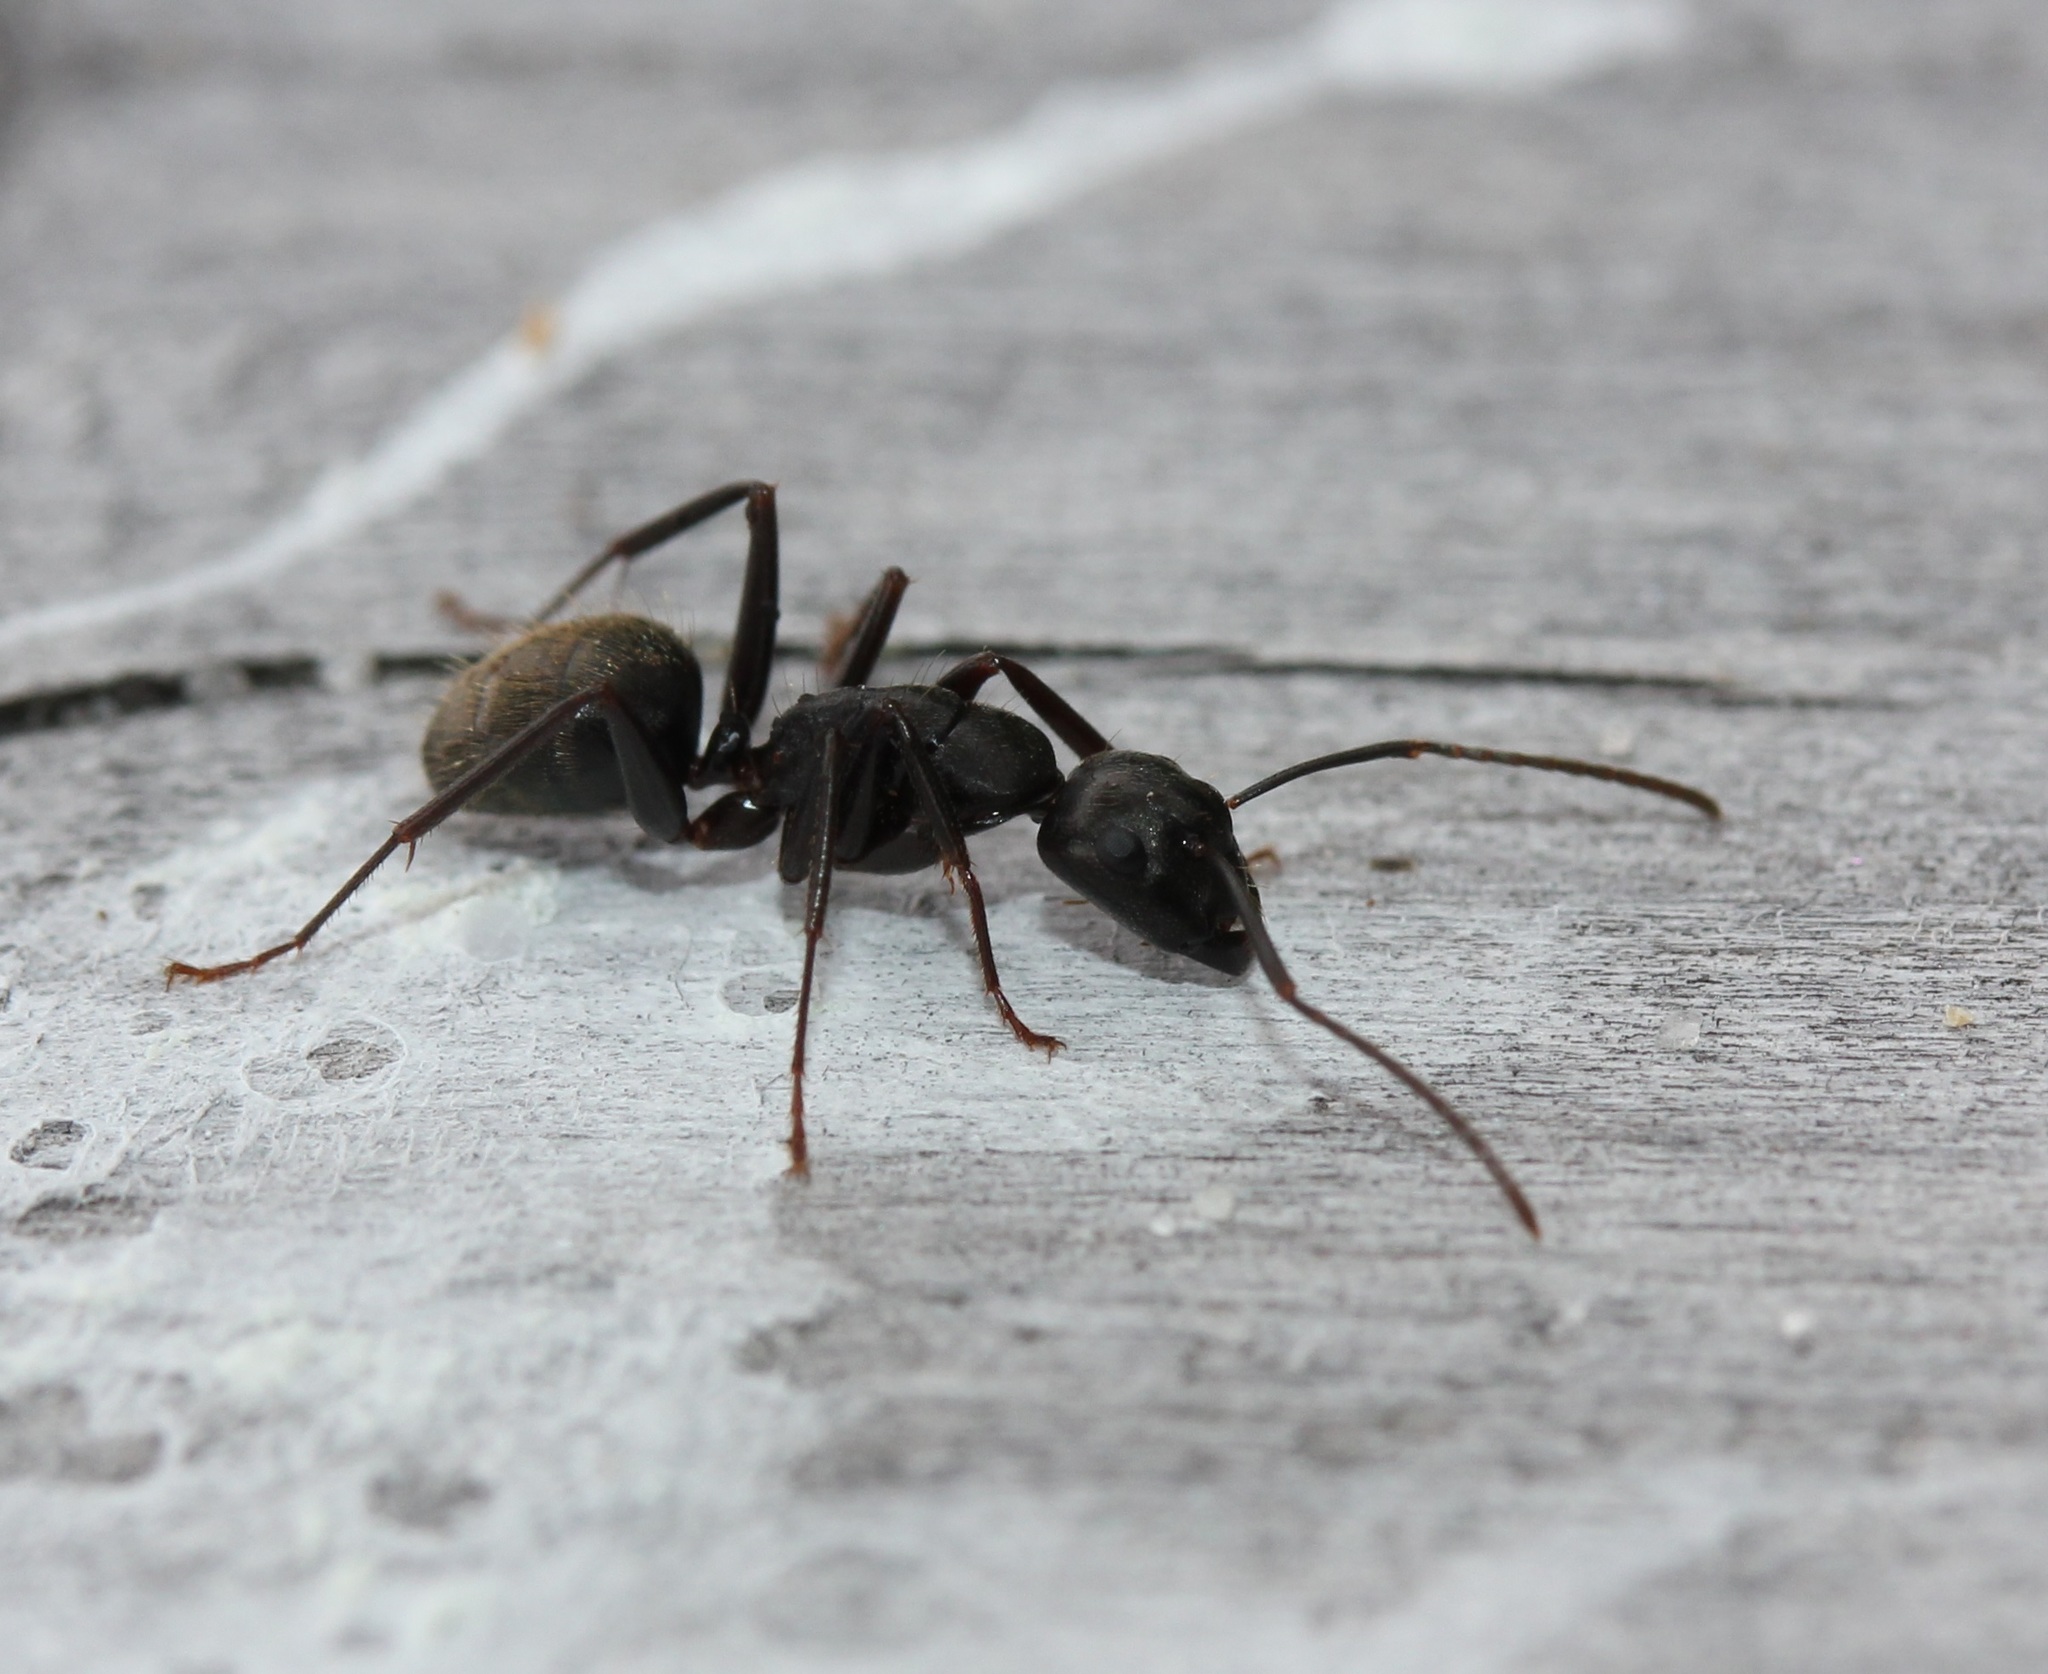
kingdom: Animalia
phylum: Arthropoda
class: Insecta
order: Hymenoptera
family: Formicidae
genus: Camponotus
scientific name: Camponotus pennsylvanicus
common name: Black carpenter ant
